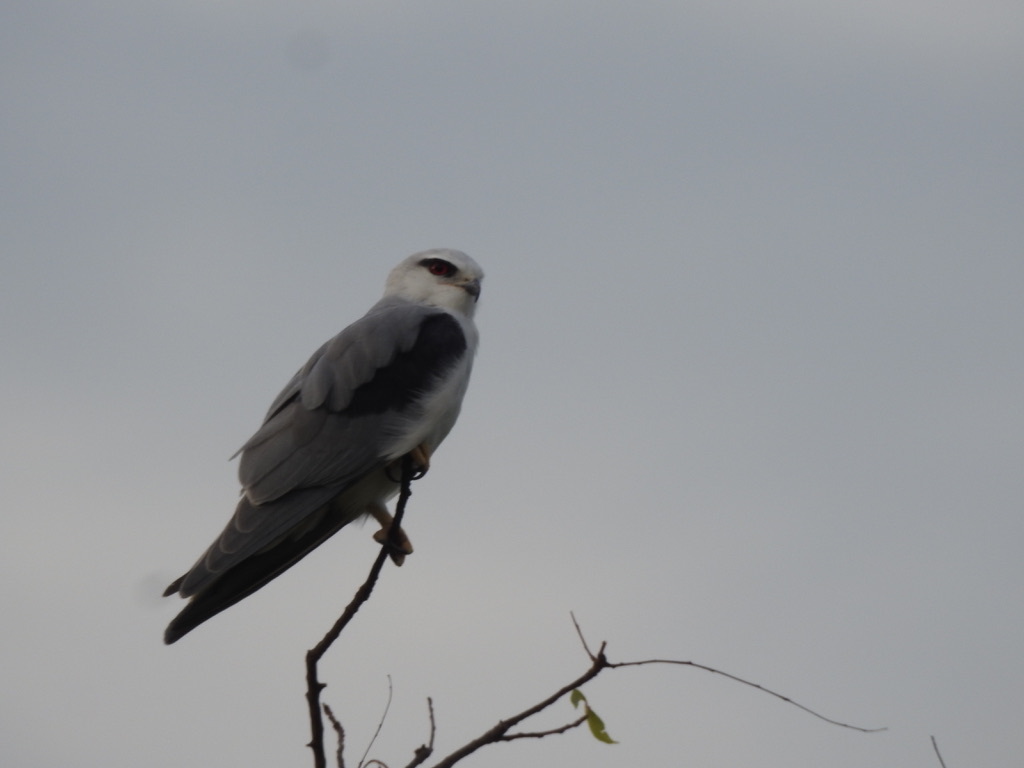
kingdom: Animalia
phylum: Chordata
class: Aves
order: Accipitriformes
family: Accipitridae
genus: Elanus
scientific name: Elanus caeruleus
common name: Black-winged kite
